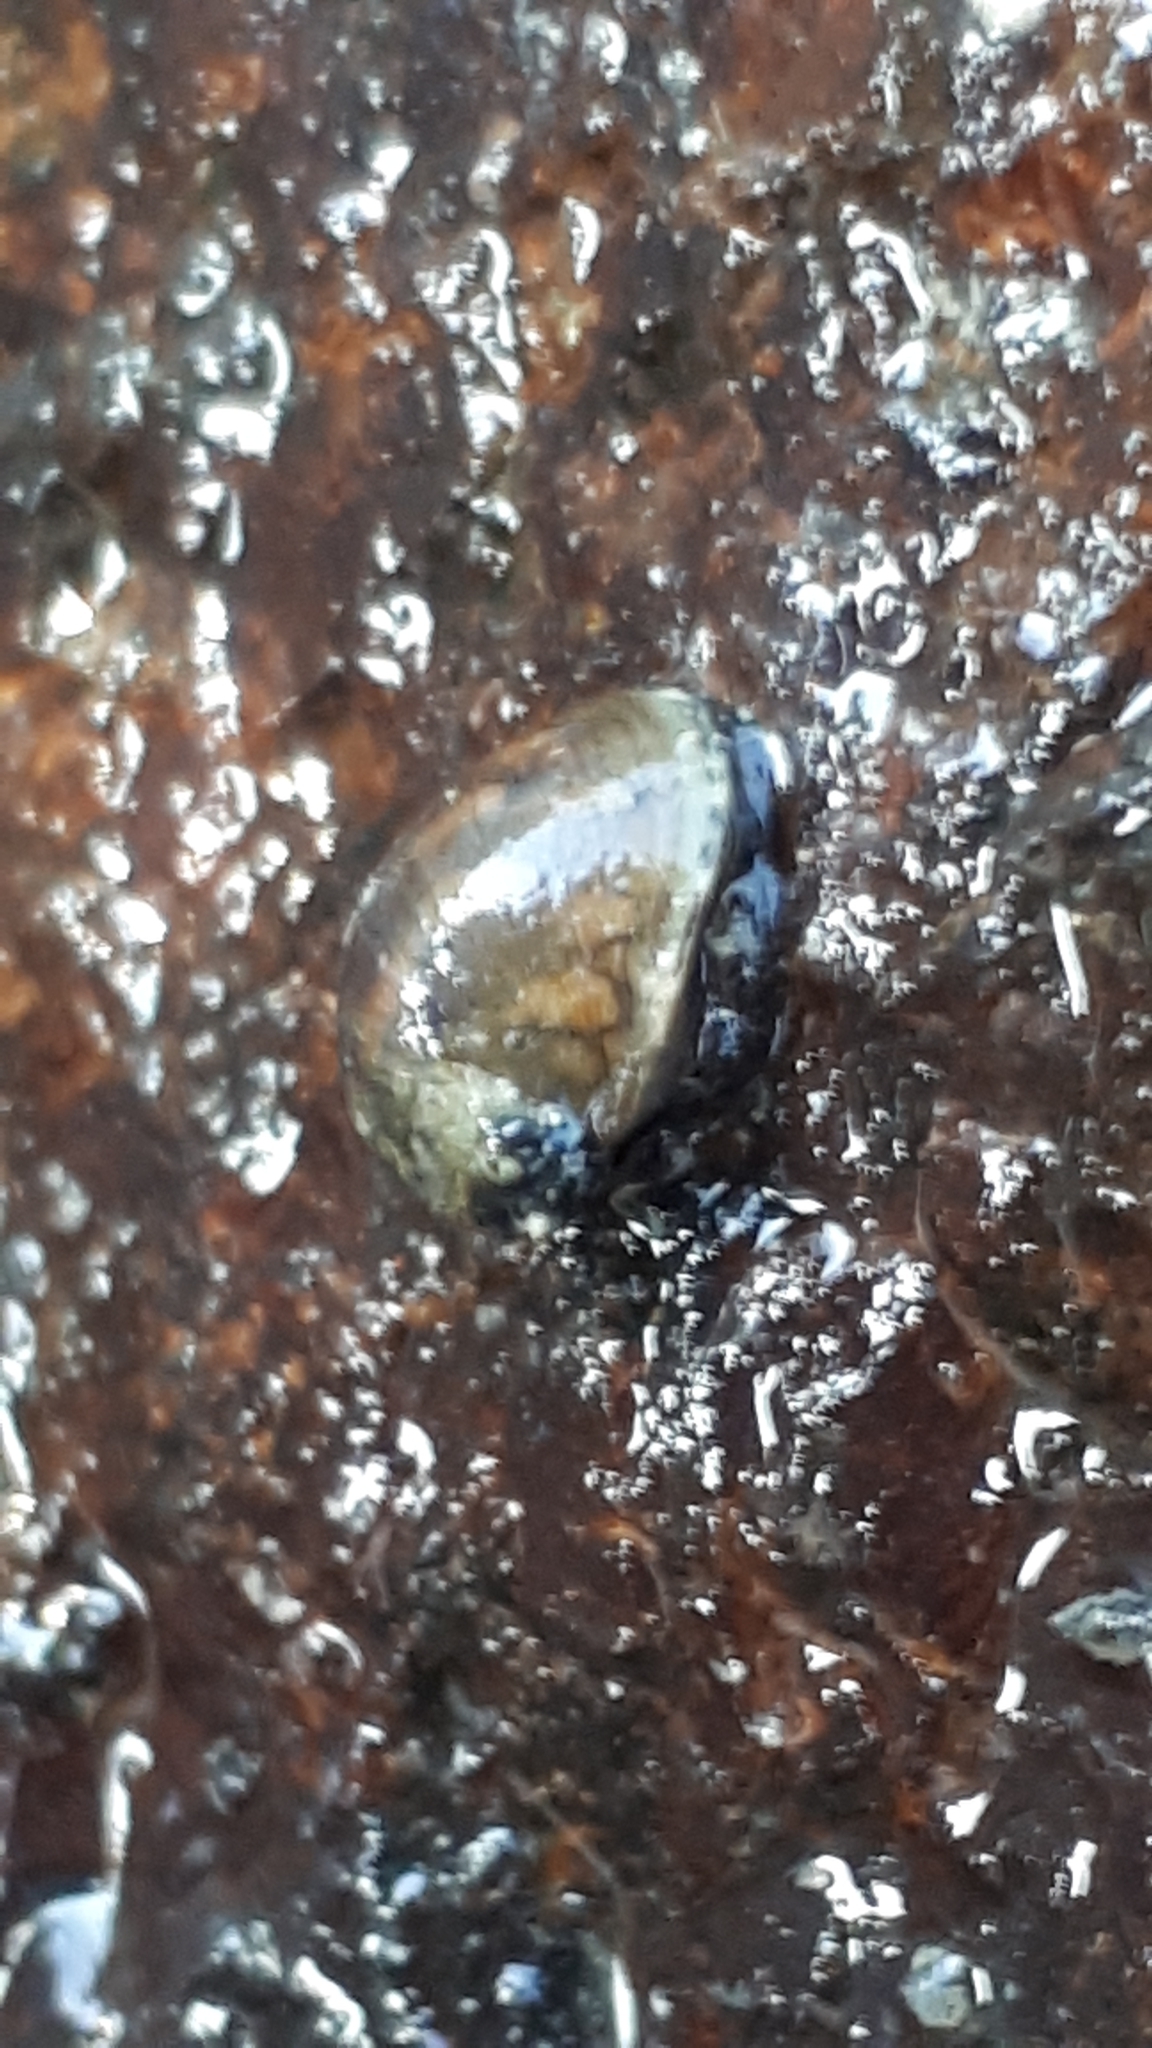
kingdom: Animalia
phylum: Mollusca
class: Gastropoda
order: Cycloneritida
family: Neritidae
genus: Theodoxus
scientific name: Theodoxus fluviatilis
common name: River nerite
